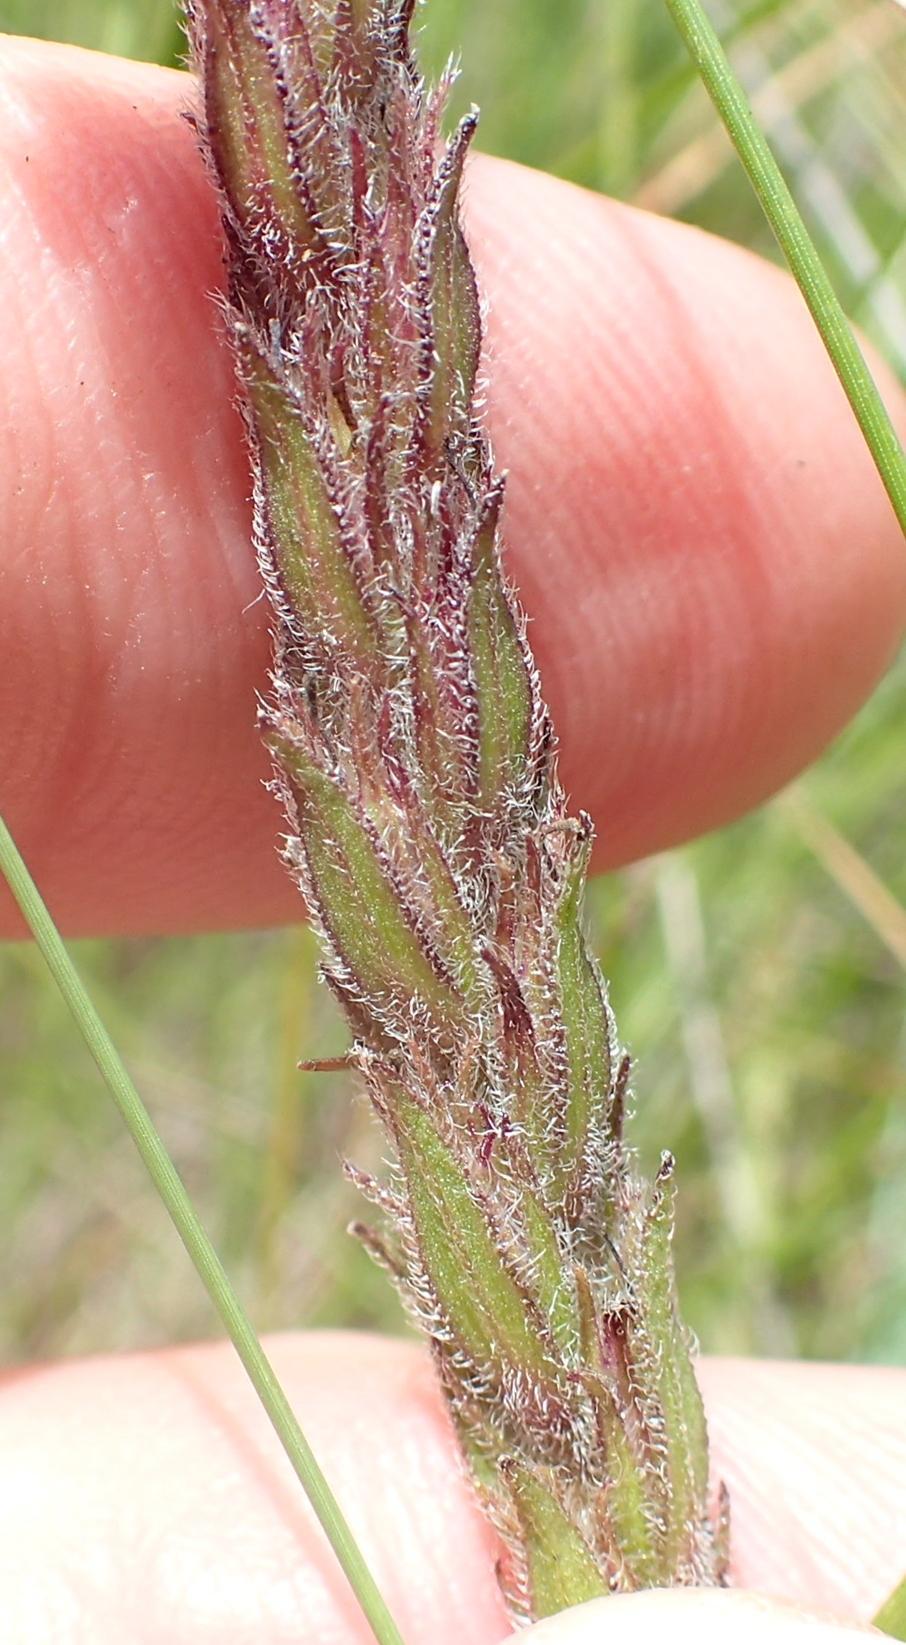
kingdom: Plantae
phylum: Tracheophyta
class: Magnoliopsida
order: Lamiales
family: Orobanchaceae
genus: Striga
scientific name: Striga bilabiata
